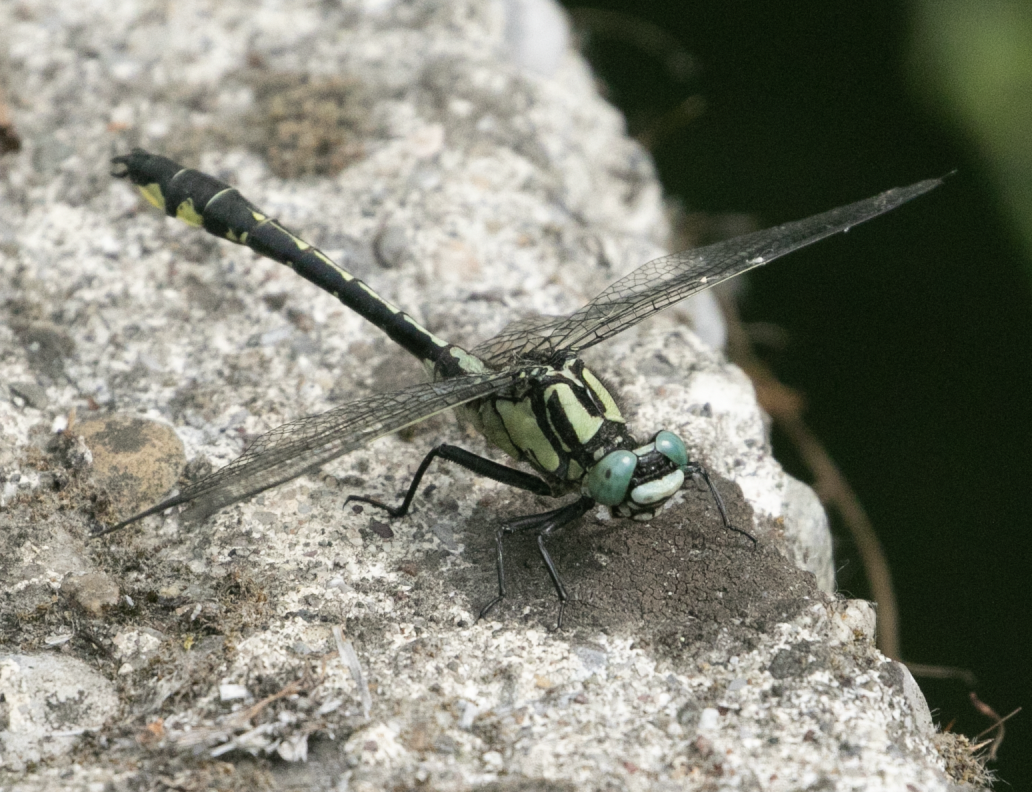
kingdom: Animalia
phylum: Arthropoda
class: Insecta
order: Odonata
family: Gomphidae
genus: Gomphus
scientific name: Gomphus vulgatissimus
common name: Club-tailed dragonfly
